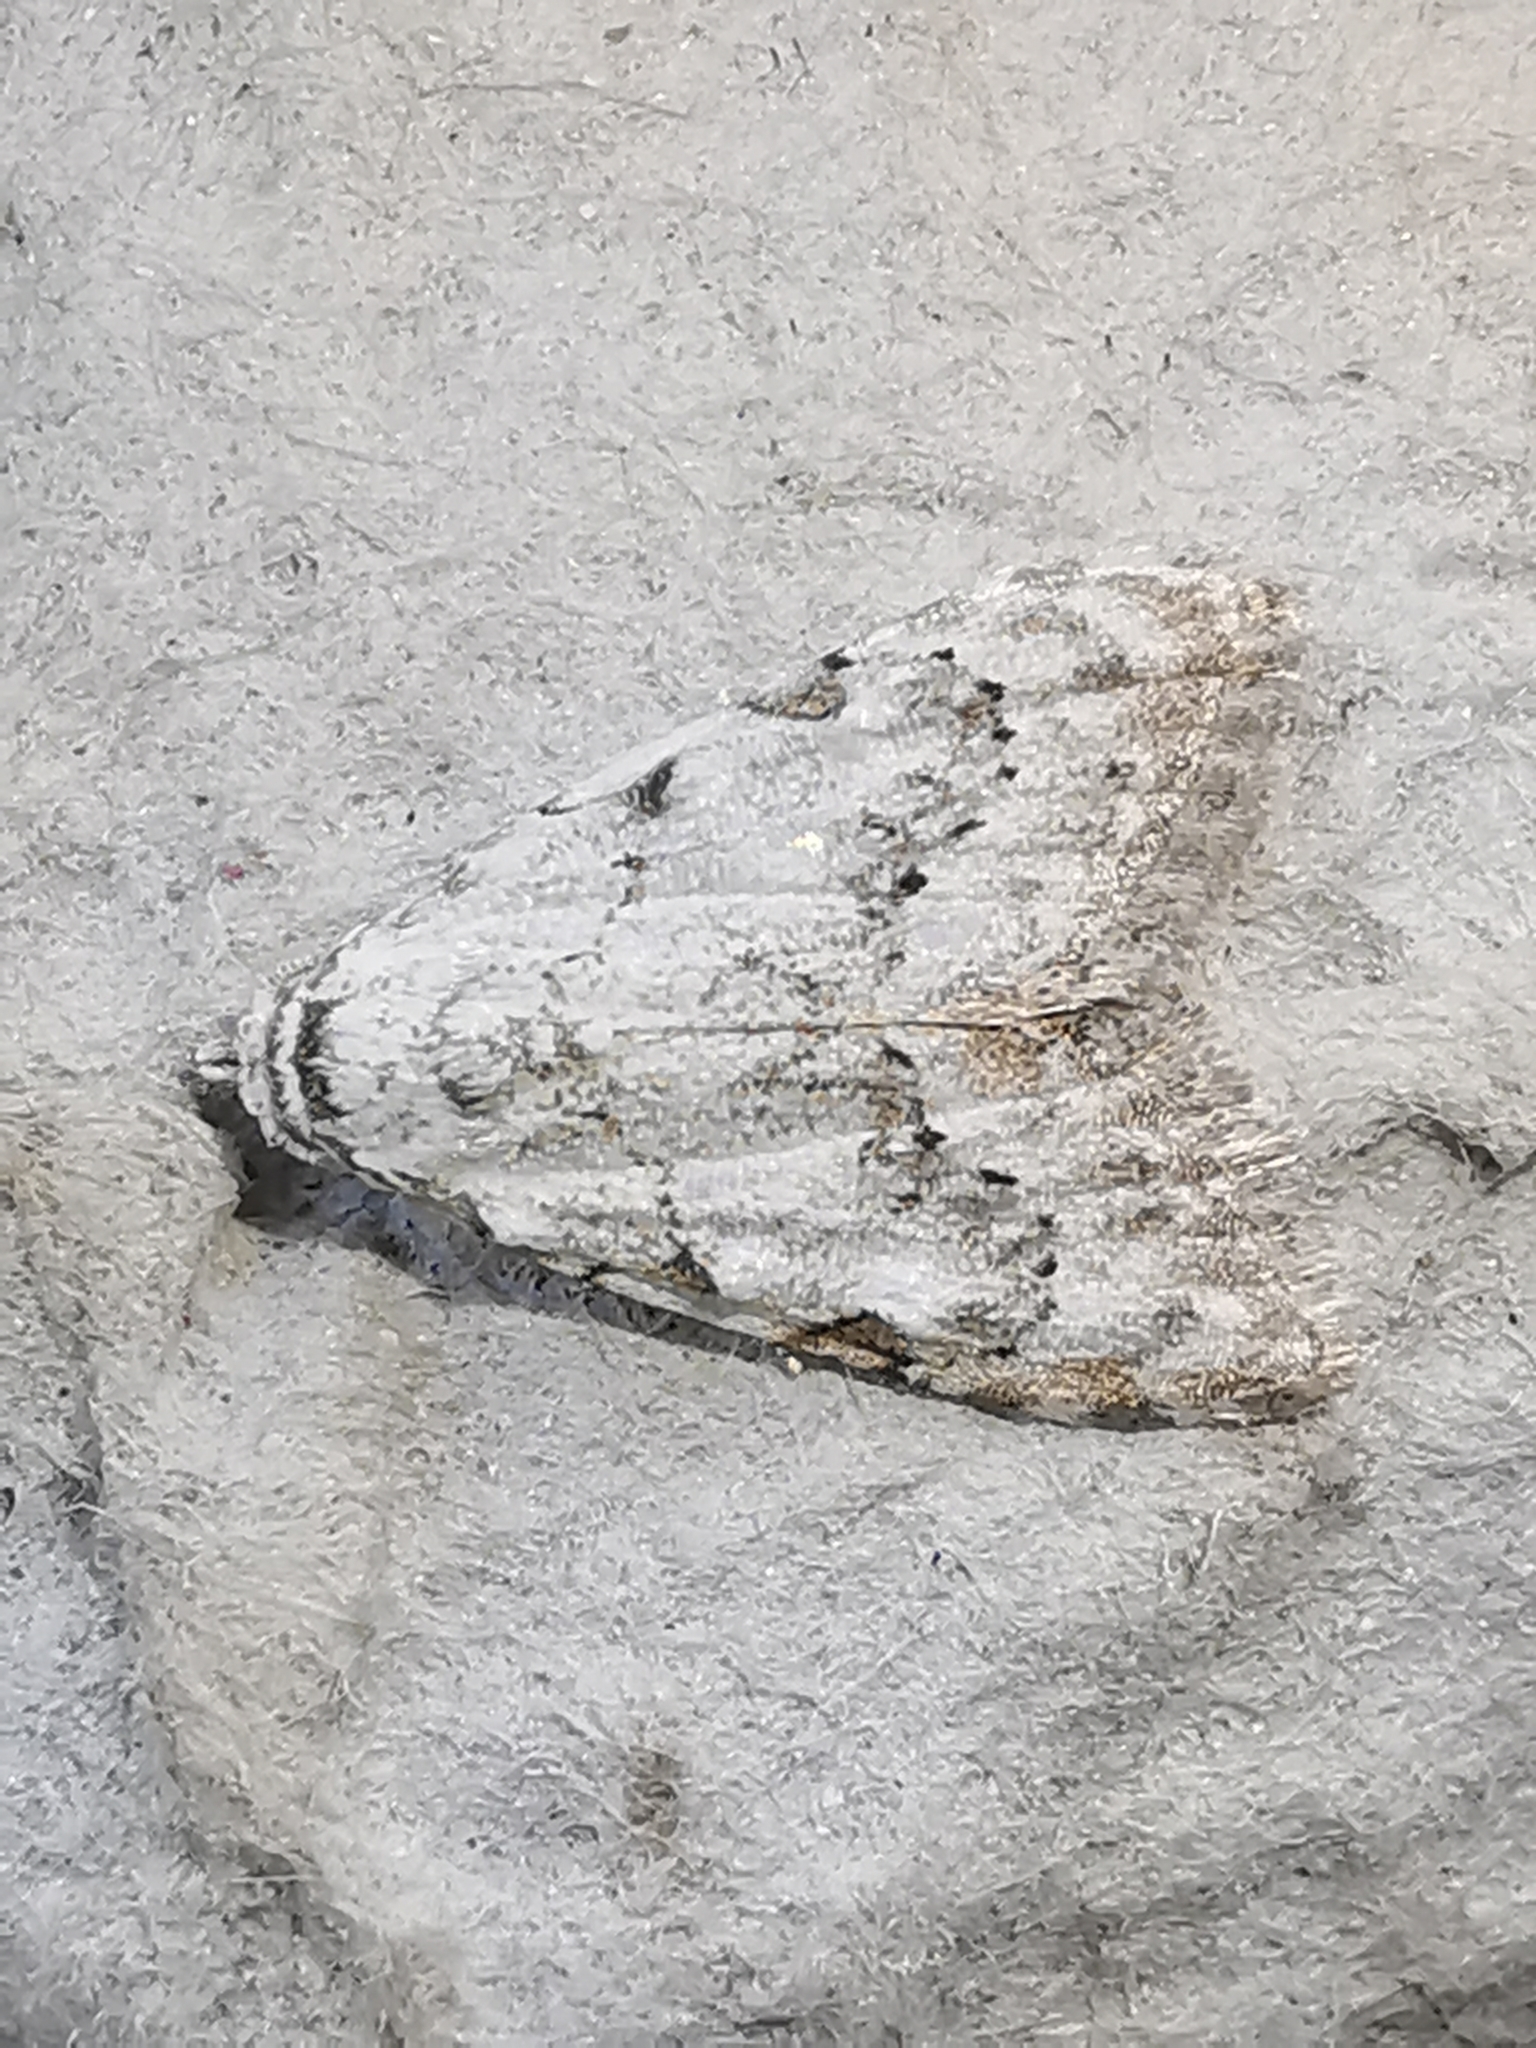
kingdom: Animalia
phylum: Arthropoda
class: Insecta
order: Lepidoptera
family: Nolidae
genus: Nola
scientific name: Nola confusalis
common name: Least black arches
